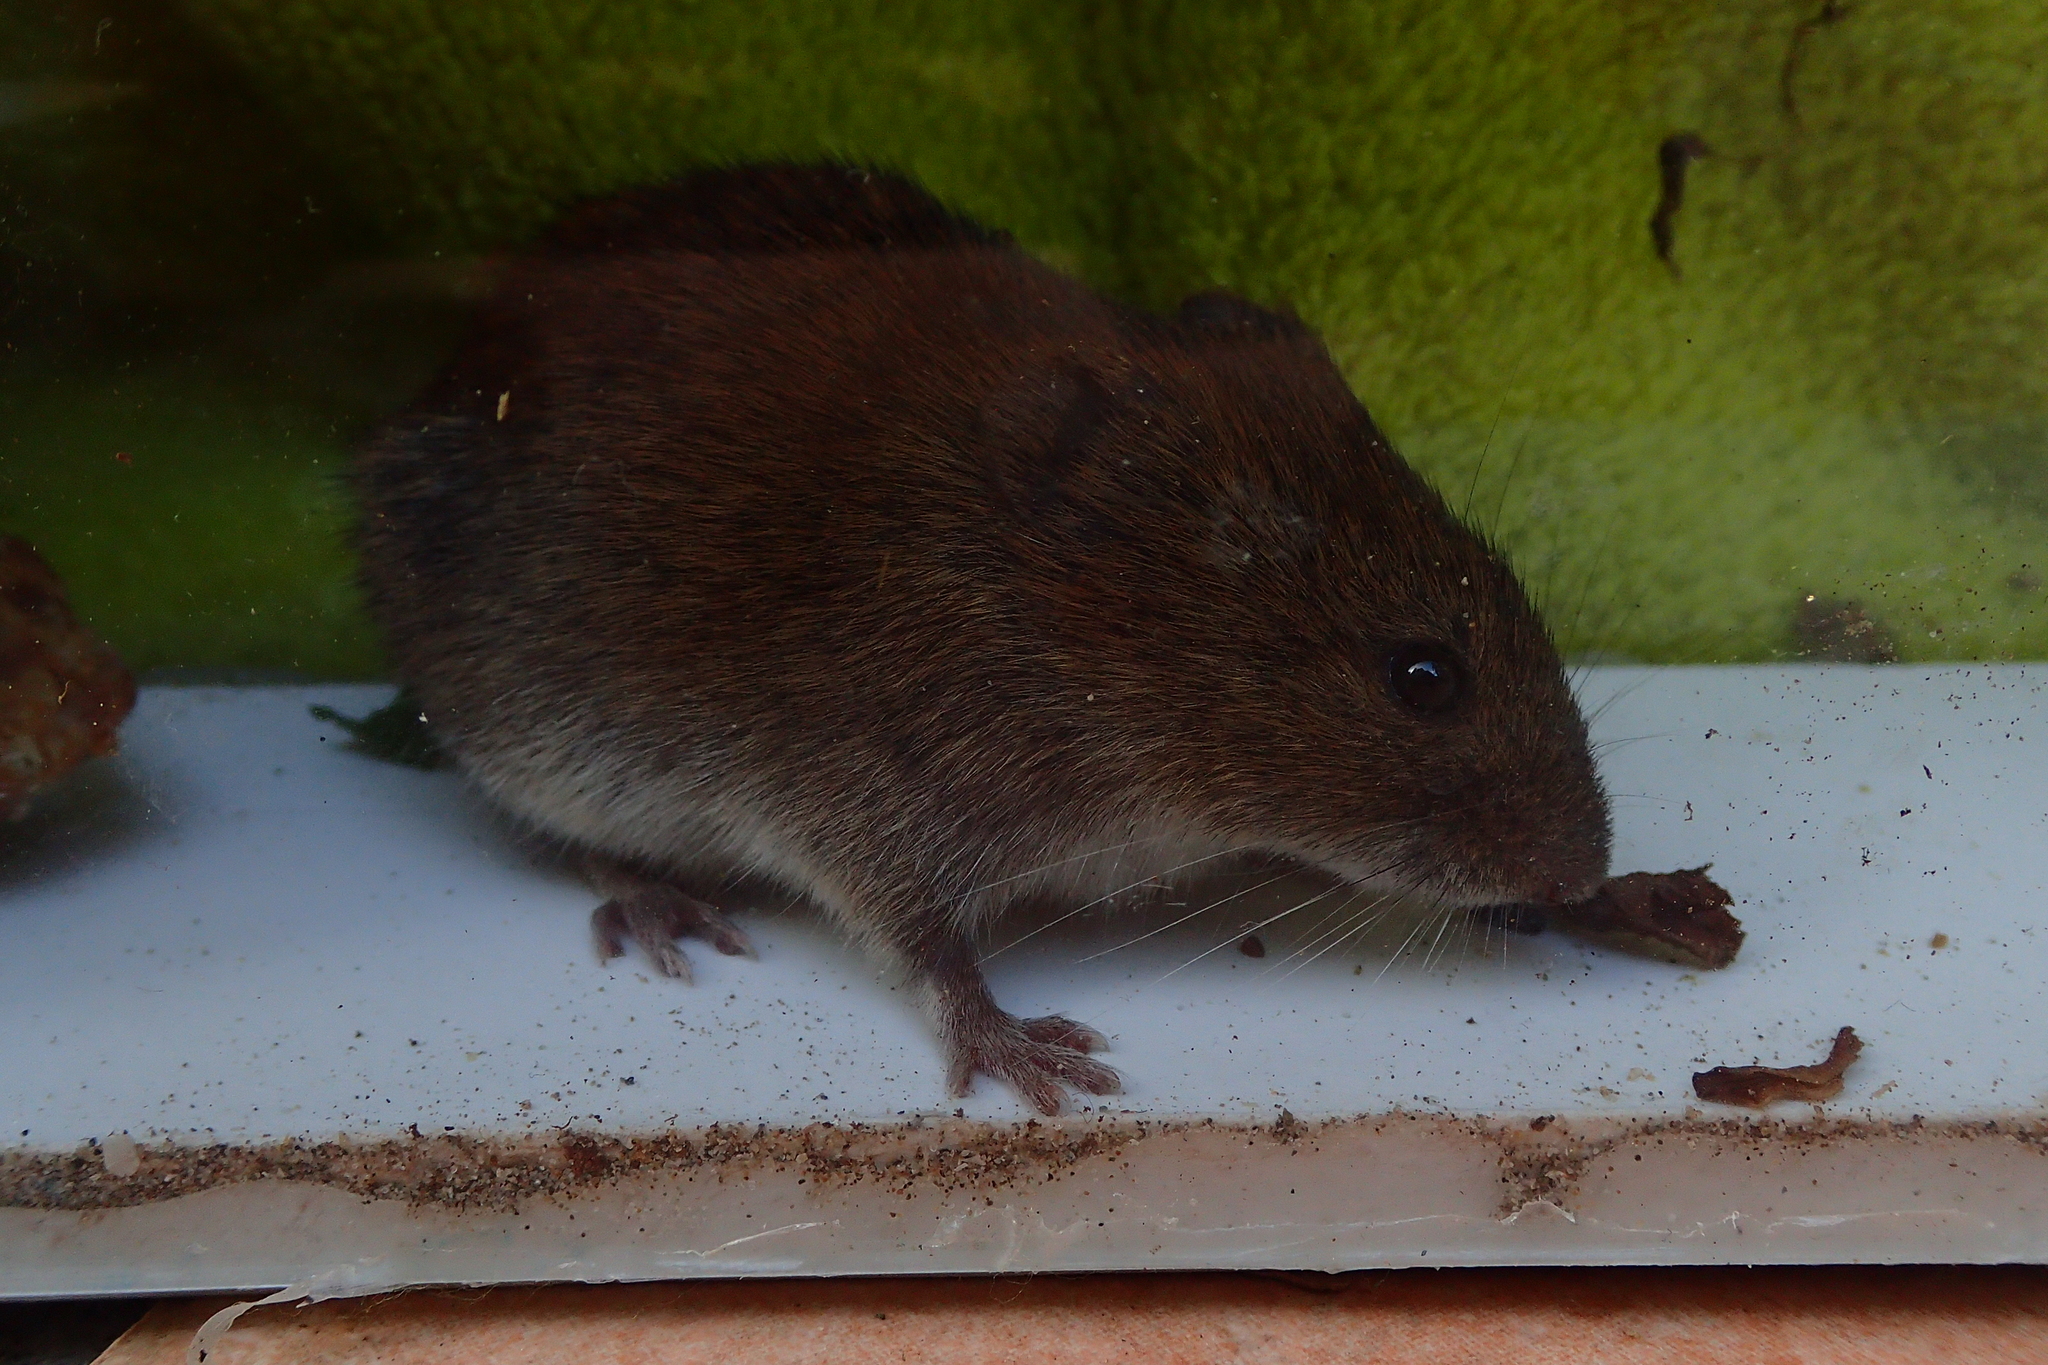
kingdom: Animalia
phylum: Chordata
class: Mammalia
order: Rodentia
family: Cricetidae
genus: Myodes
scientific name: Myodes glareolus
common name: Bank vole
